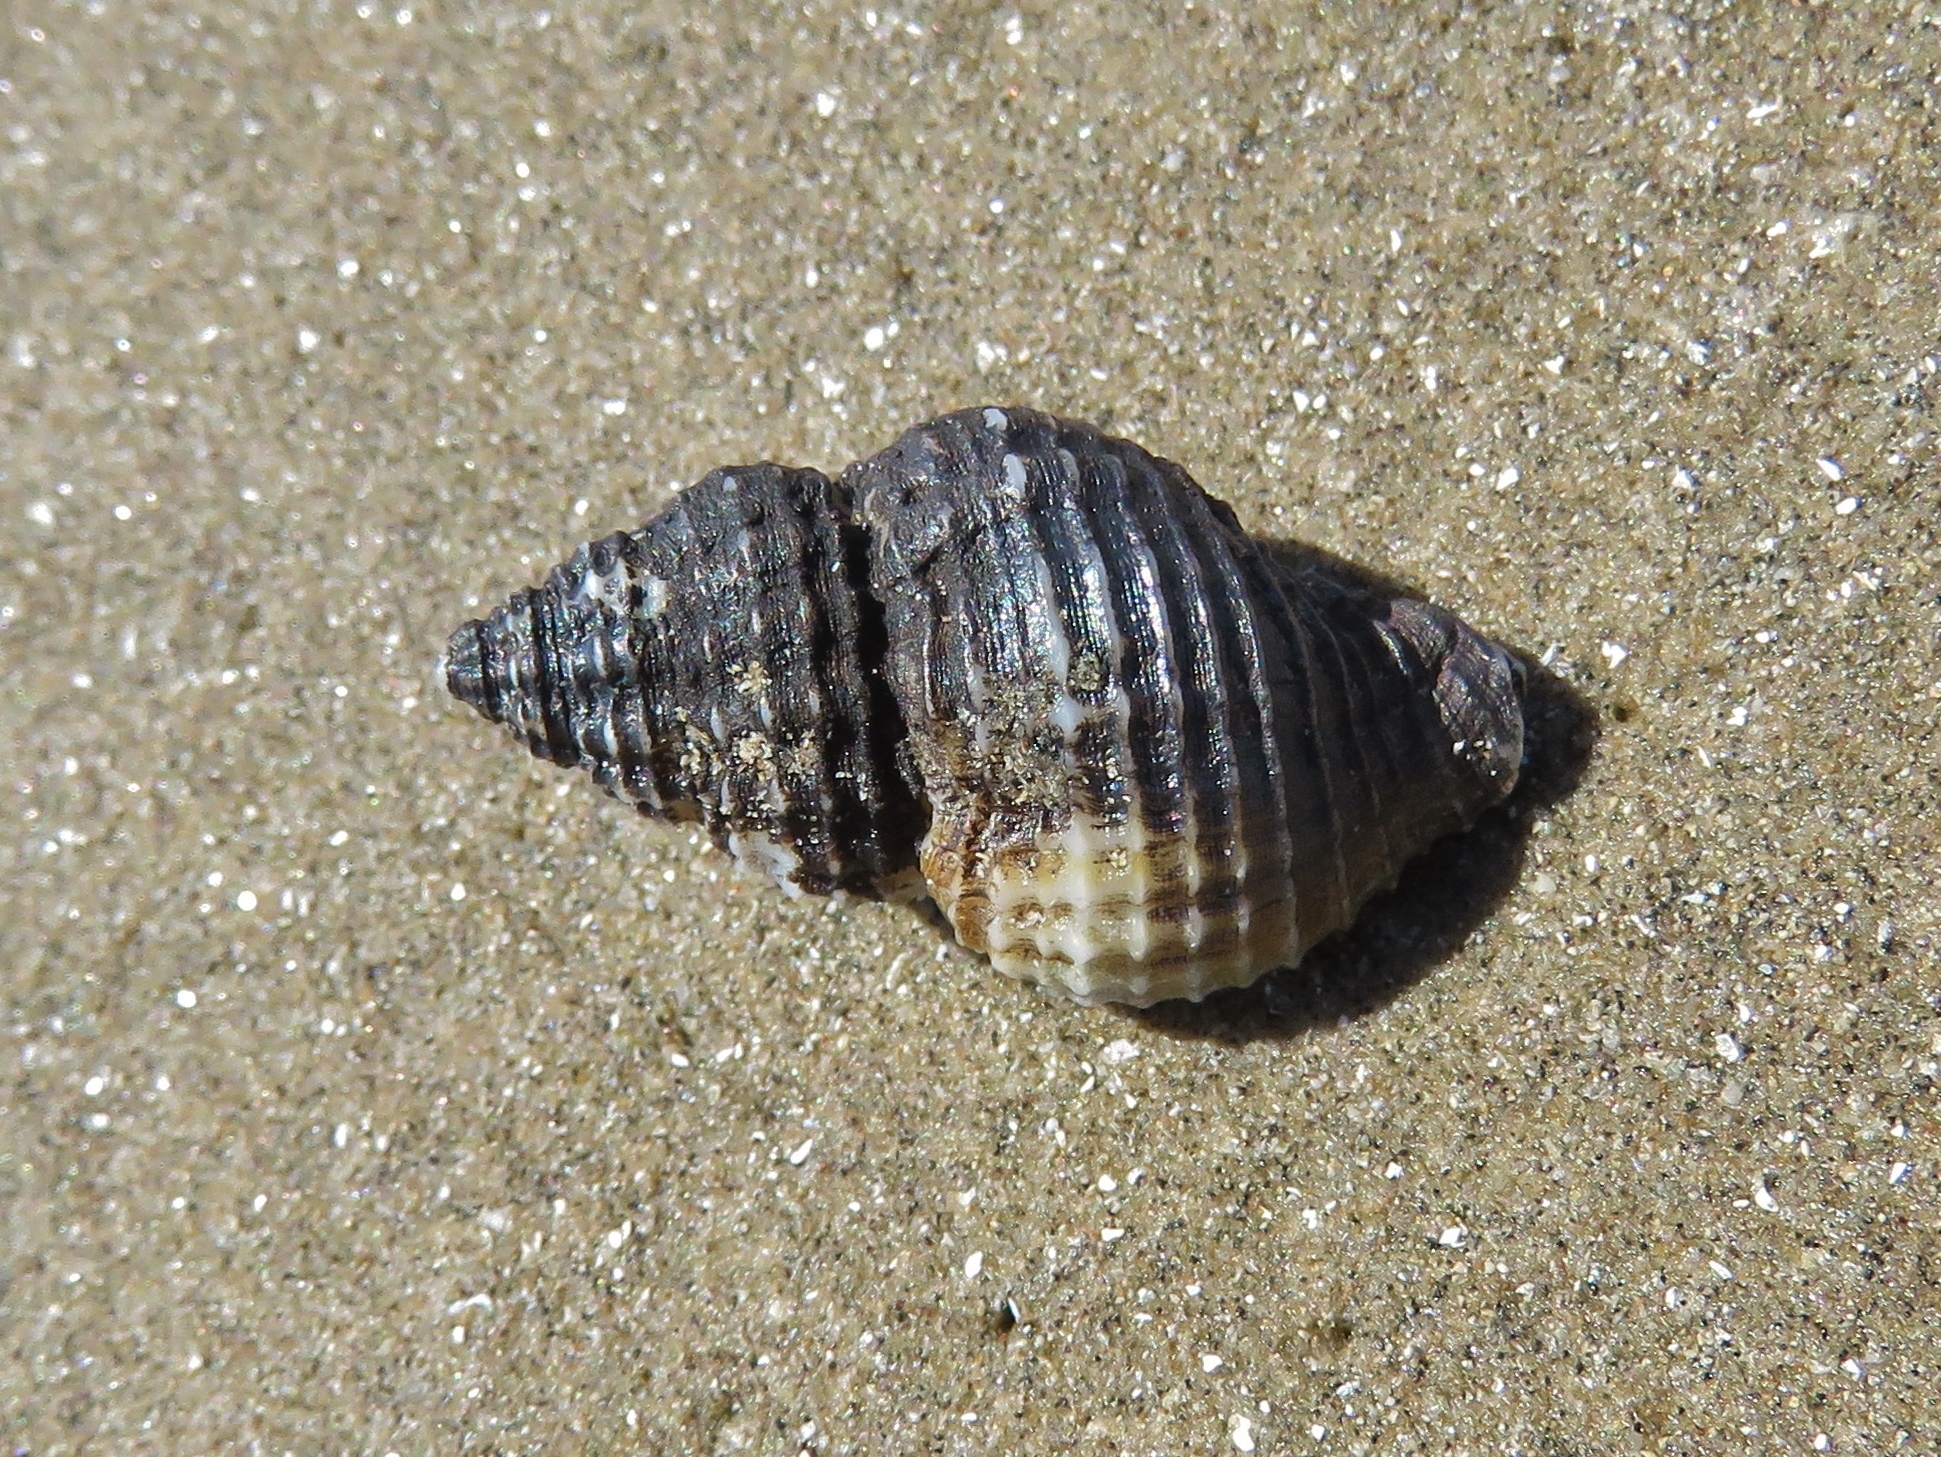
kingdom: Animalia
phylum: Mollusca
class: Gastropoda
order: Neogastropoda
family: Pisaniidae
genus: Solenosteira
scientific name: Solenosteira cancellaria
